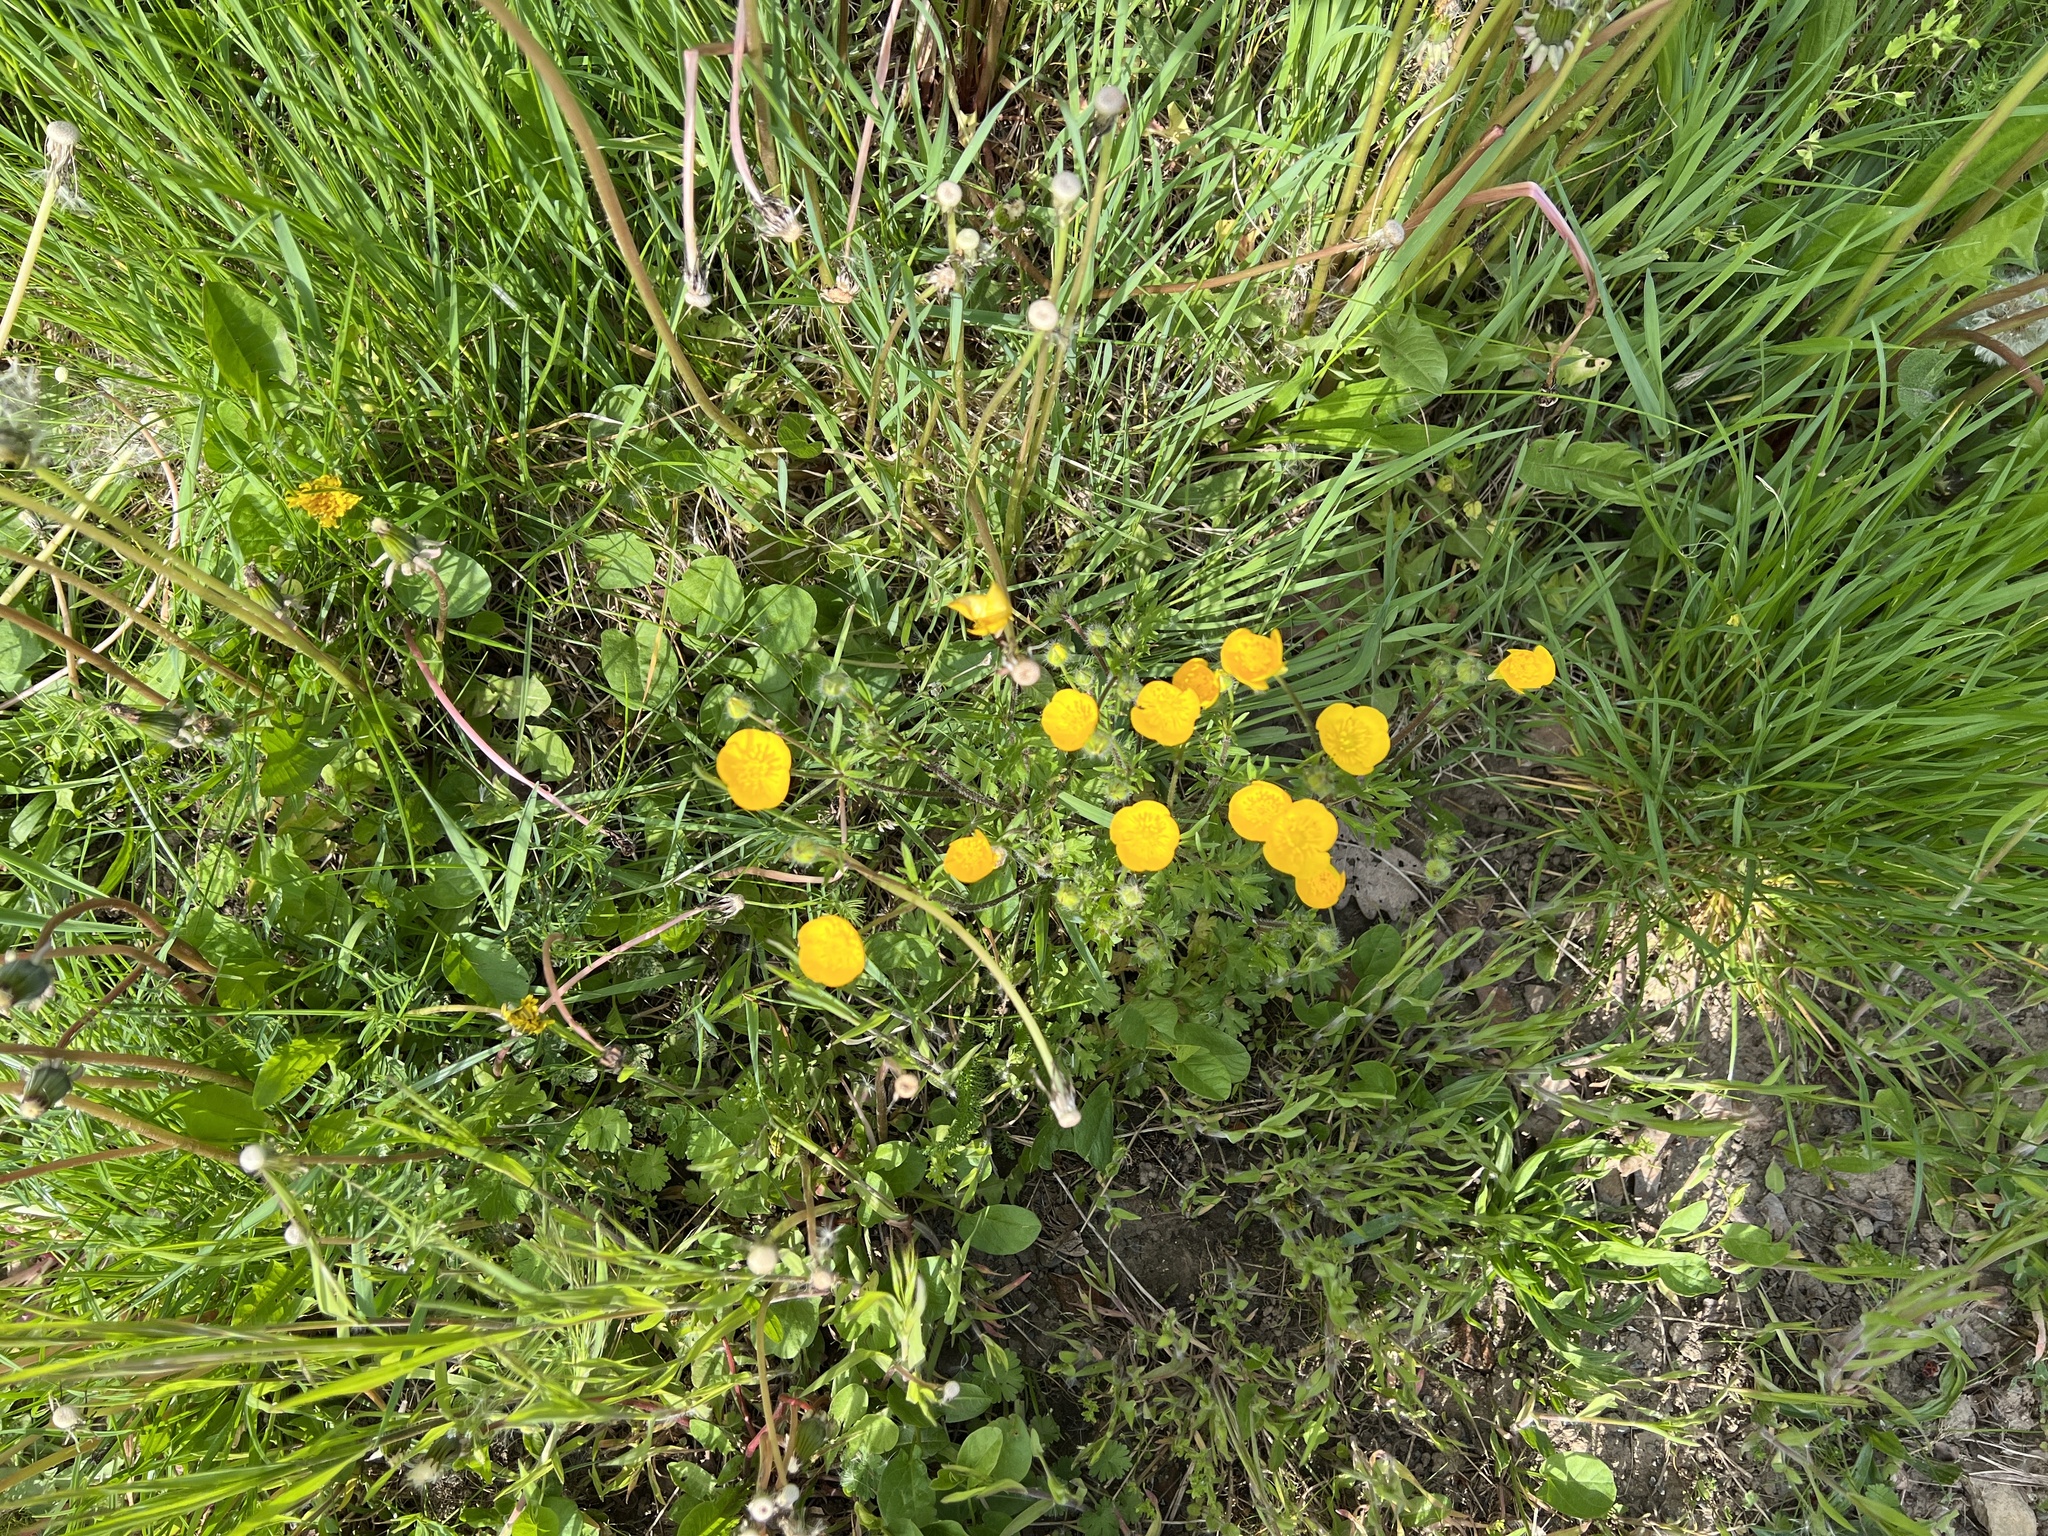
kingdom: Plantae
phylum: Tracheophyta
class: Magnoliopsida
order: Ranunculales
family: Ranunculaceae
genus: Ranunculus
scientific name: Ranunculus bulbosus
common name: Bulbous buttercup
